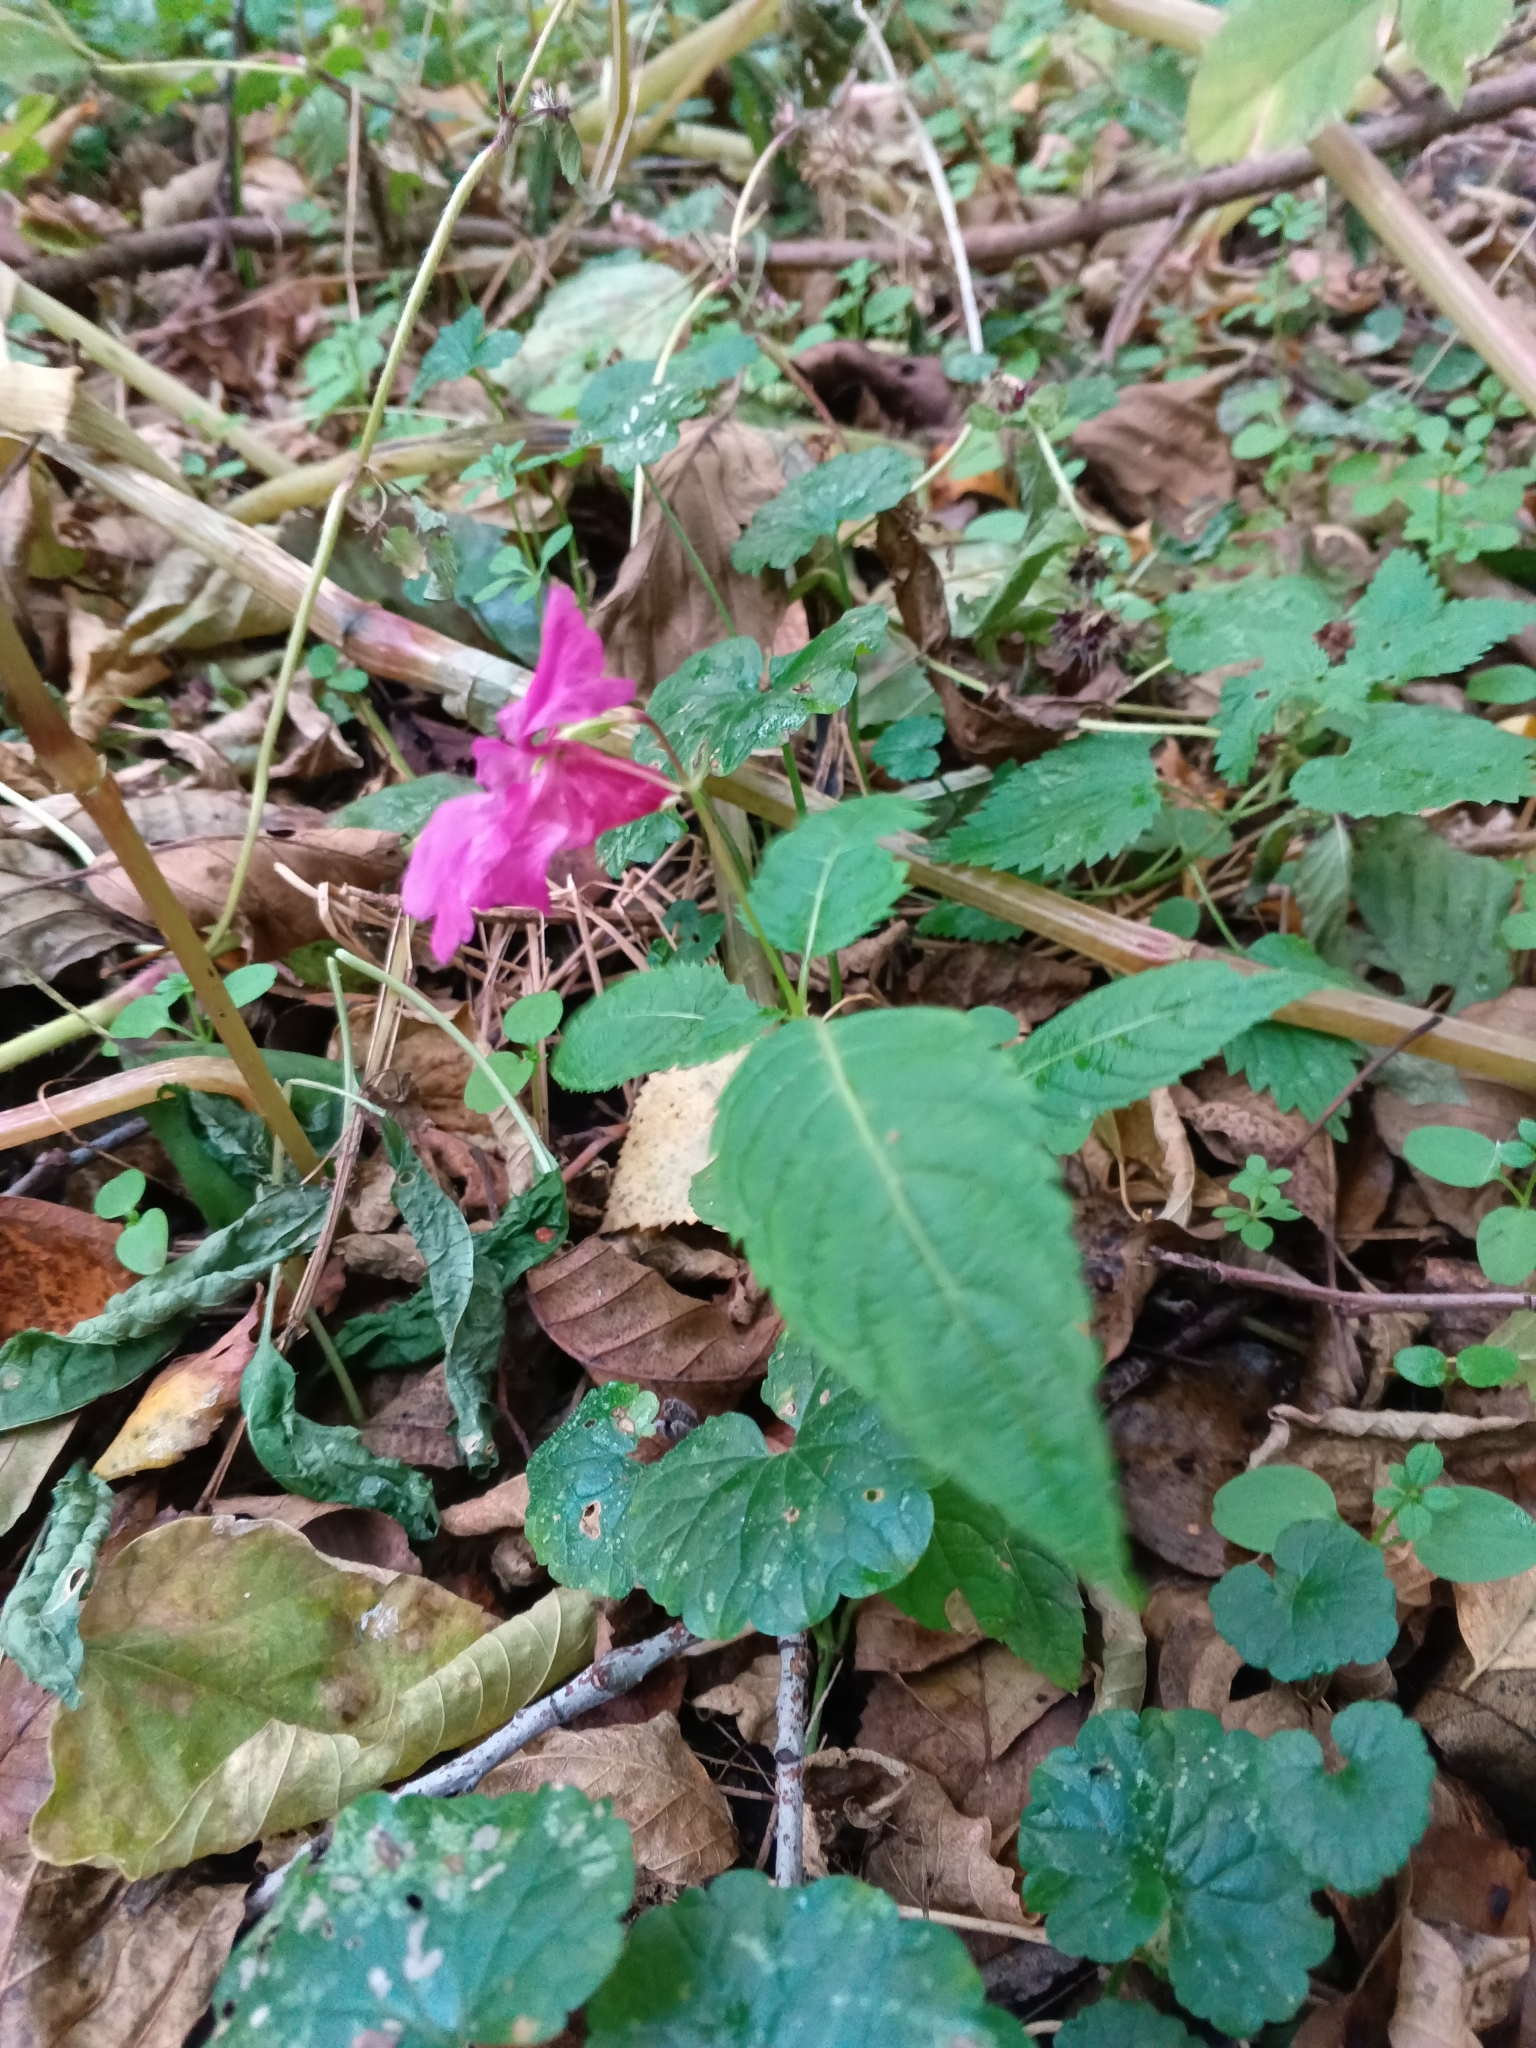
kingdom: Plantae
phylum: Tracheophyta
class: Magnoliopsida
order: Ericales
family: Balsaminaceae
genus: Impatiens
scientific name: Impatiens glandulifera
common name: Himalayan balsam
